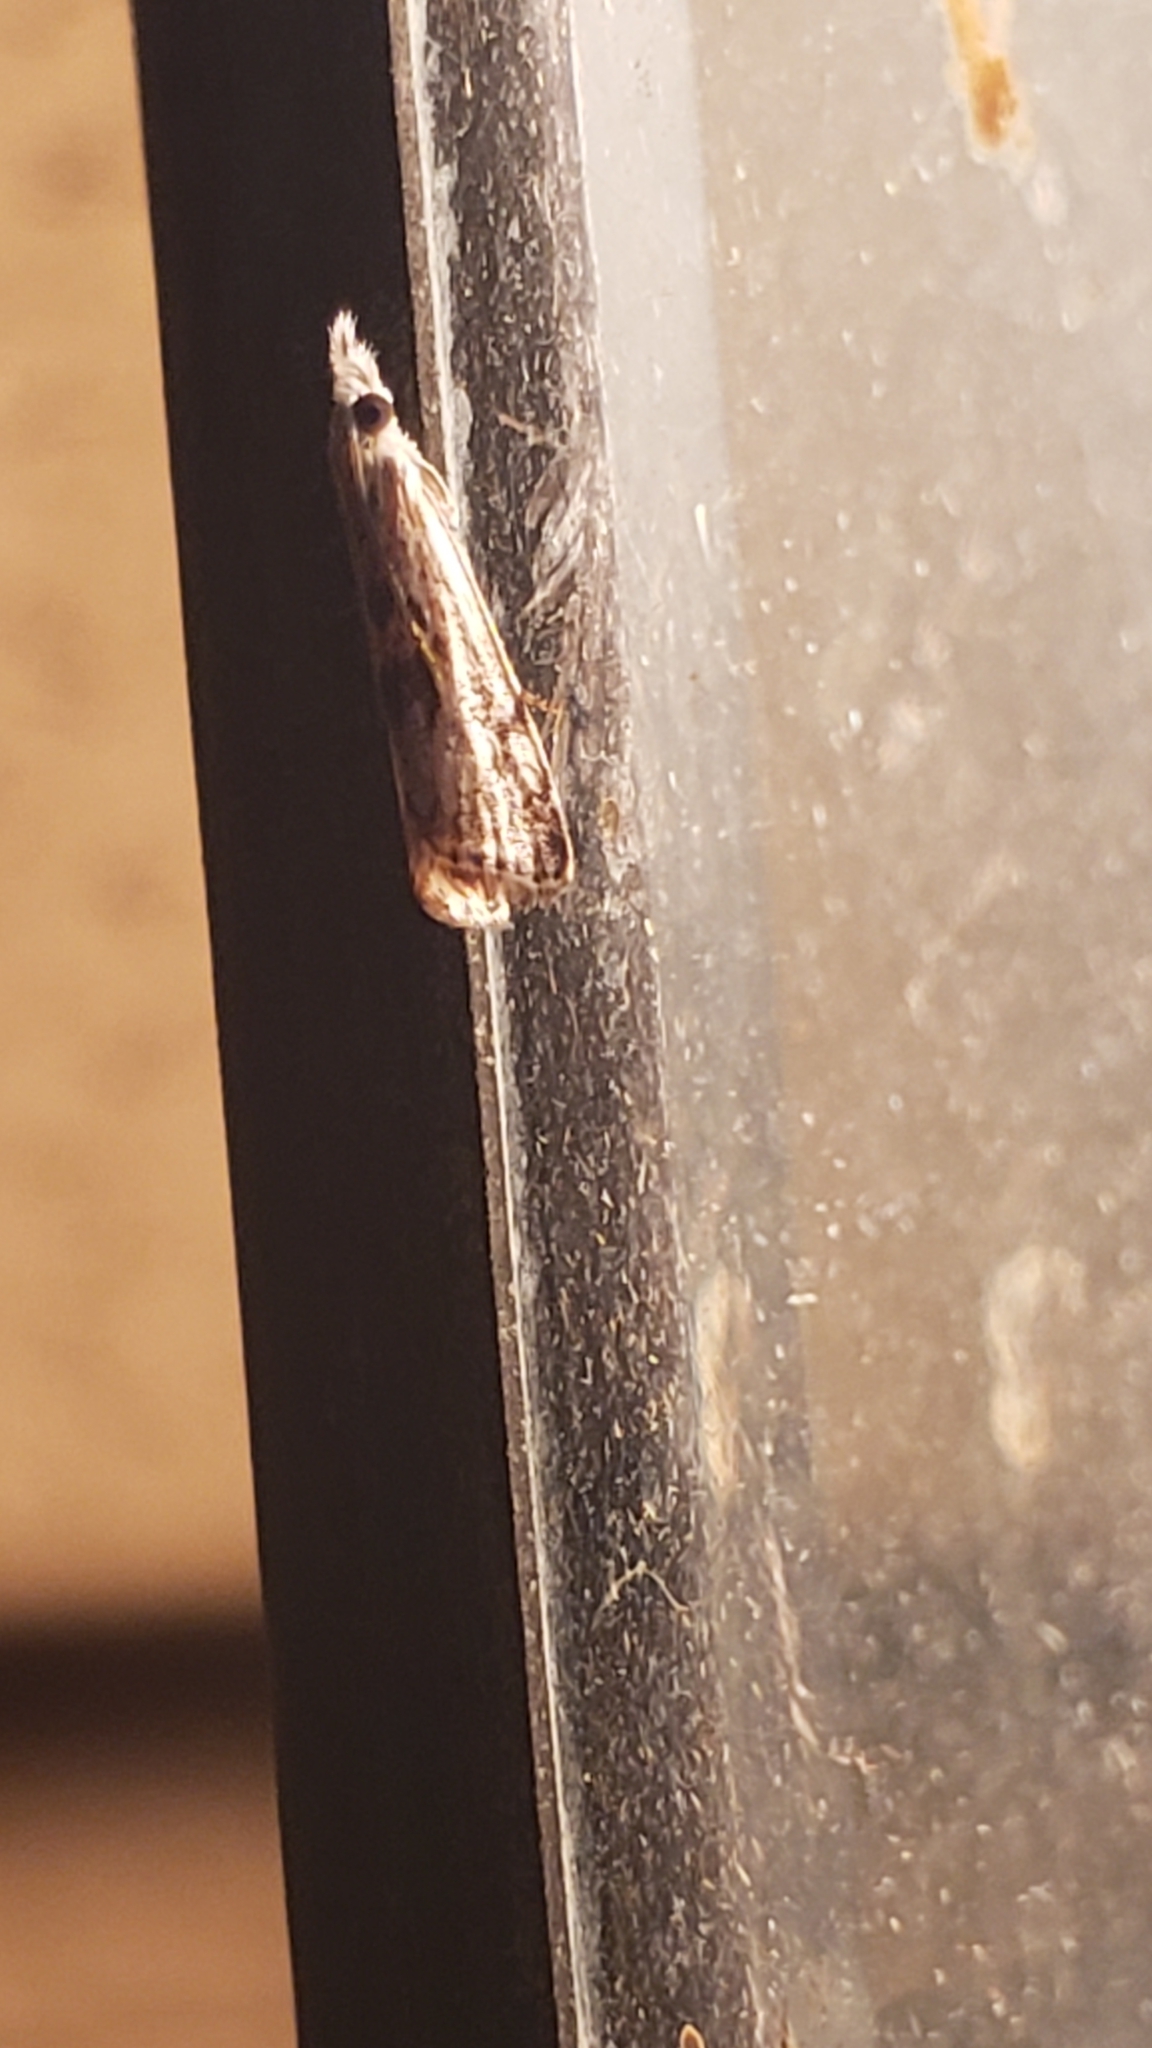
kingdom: Animalia
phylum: Arthropoda
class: Insecta
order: Lepidoptera
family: Crambidae
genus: Microcrambus
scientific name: Microcrambus kimballi
